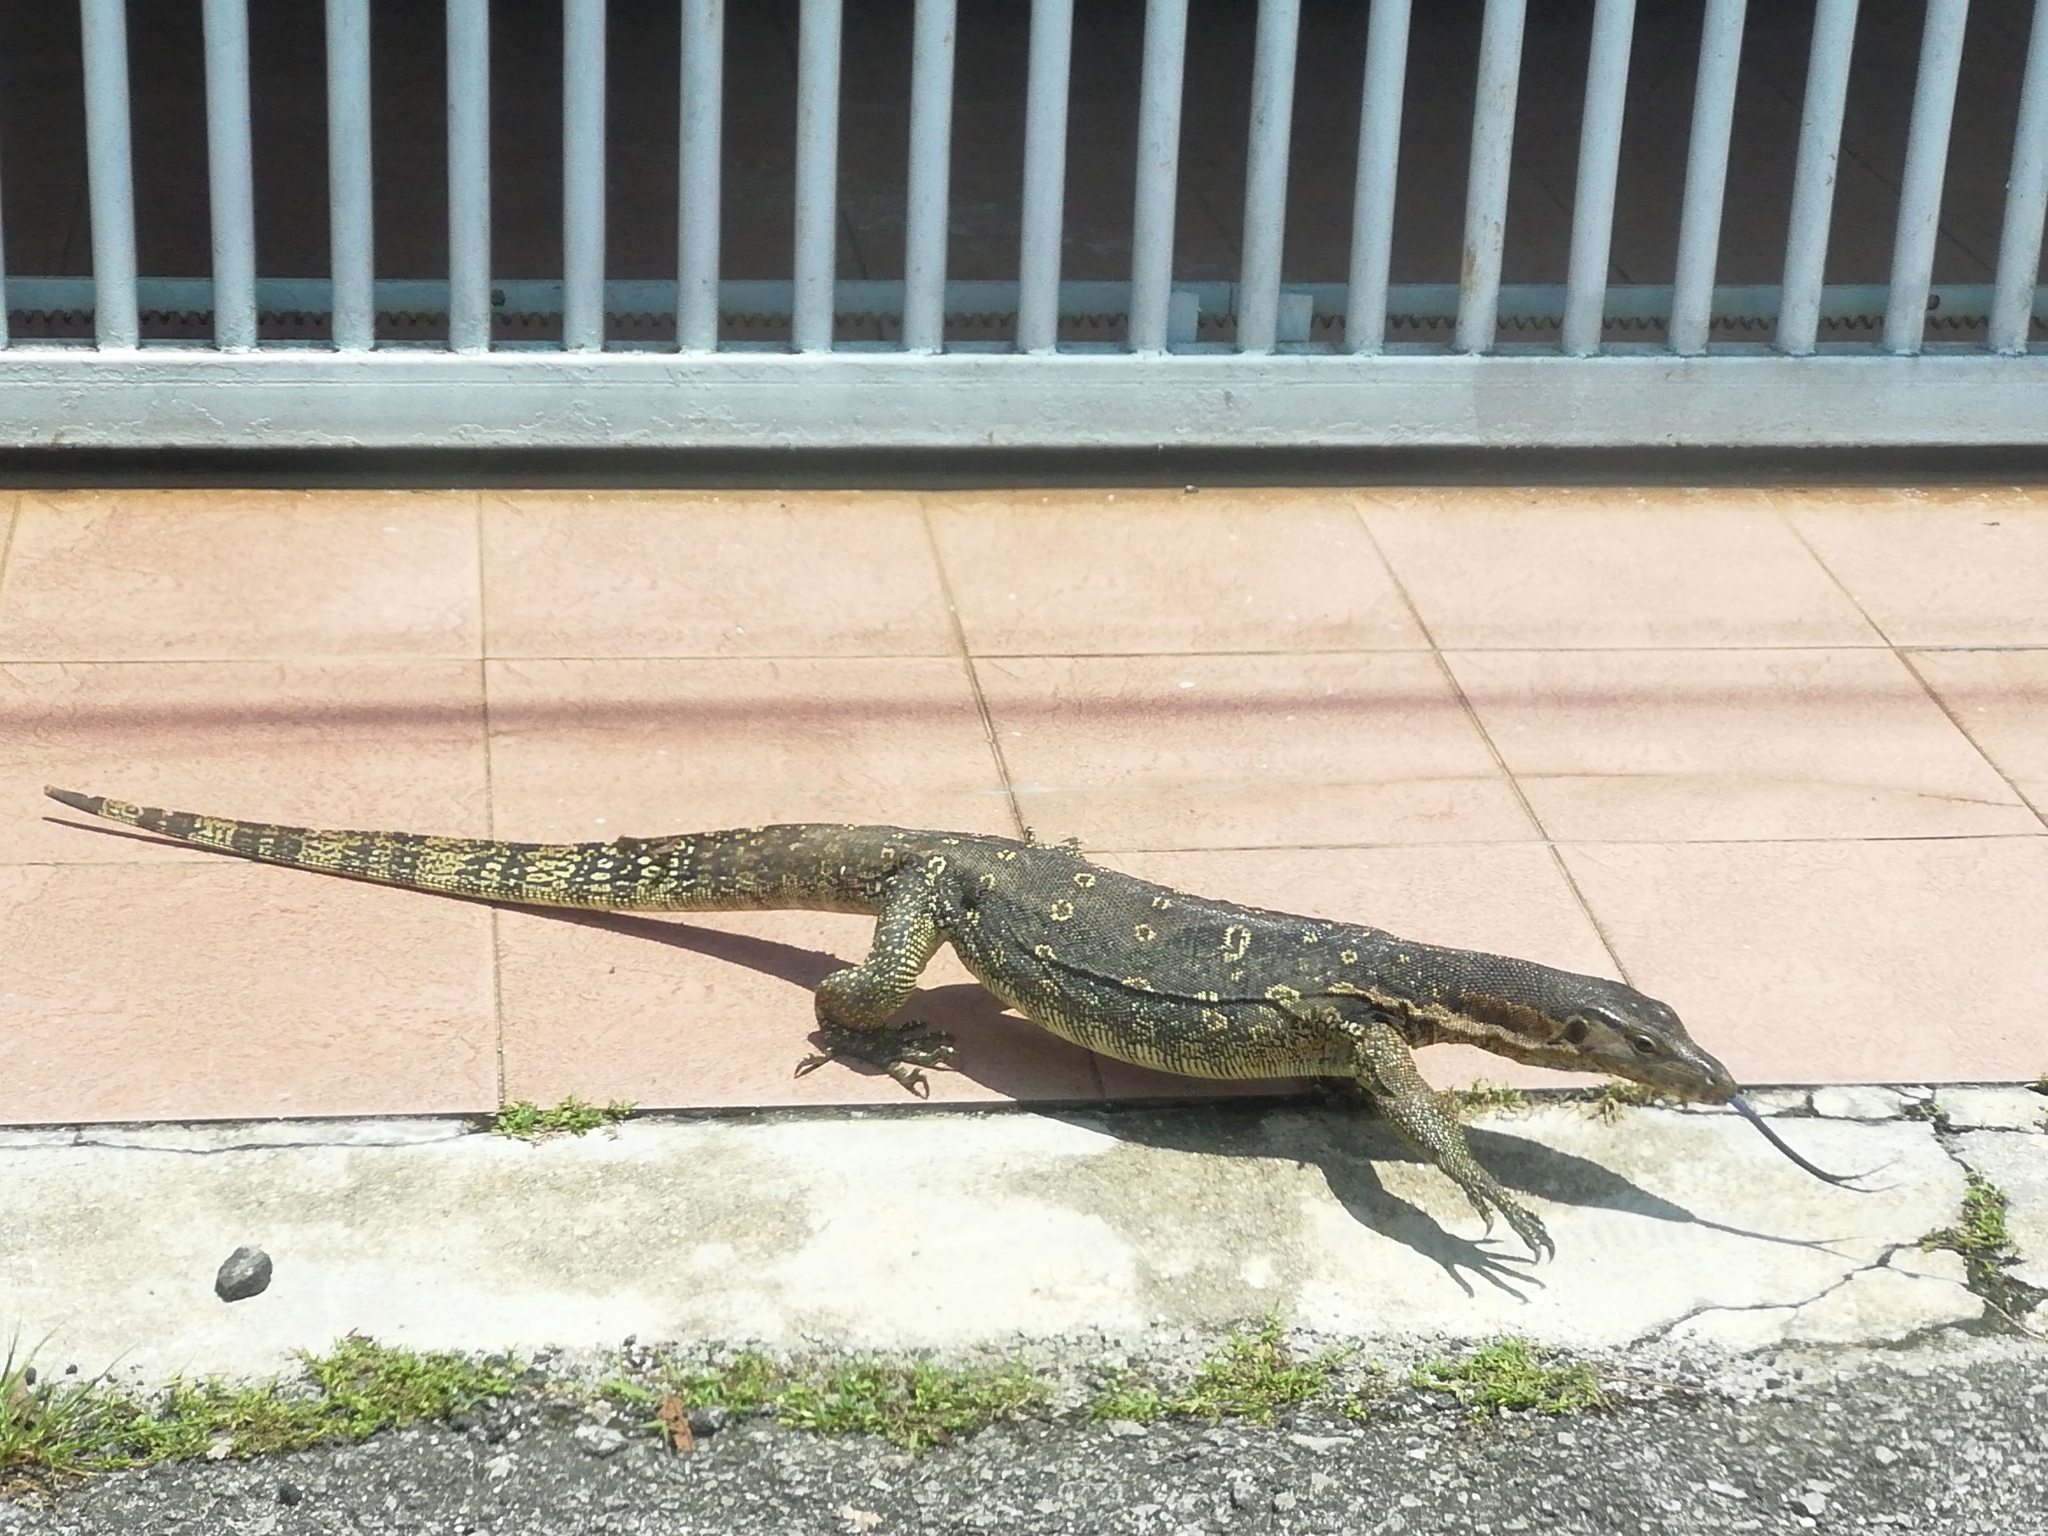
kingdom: Animalia
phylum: Chordata
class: Squamata
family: Varanidae
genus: Varanus
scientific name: Varanus salvator
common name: Common water monitor
